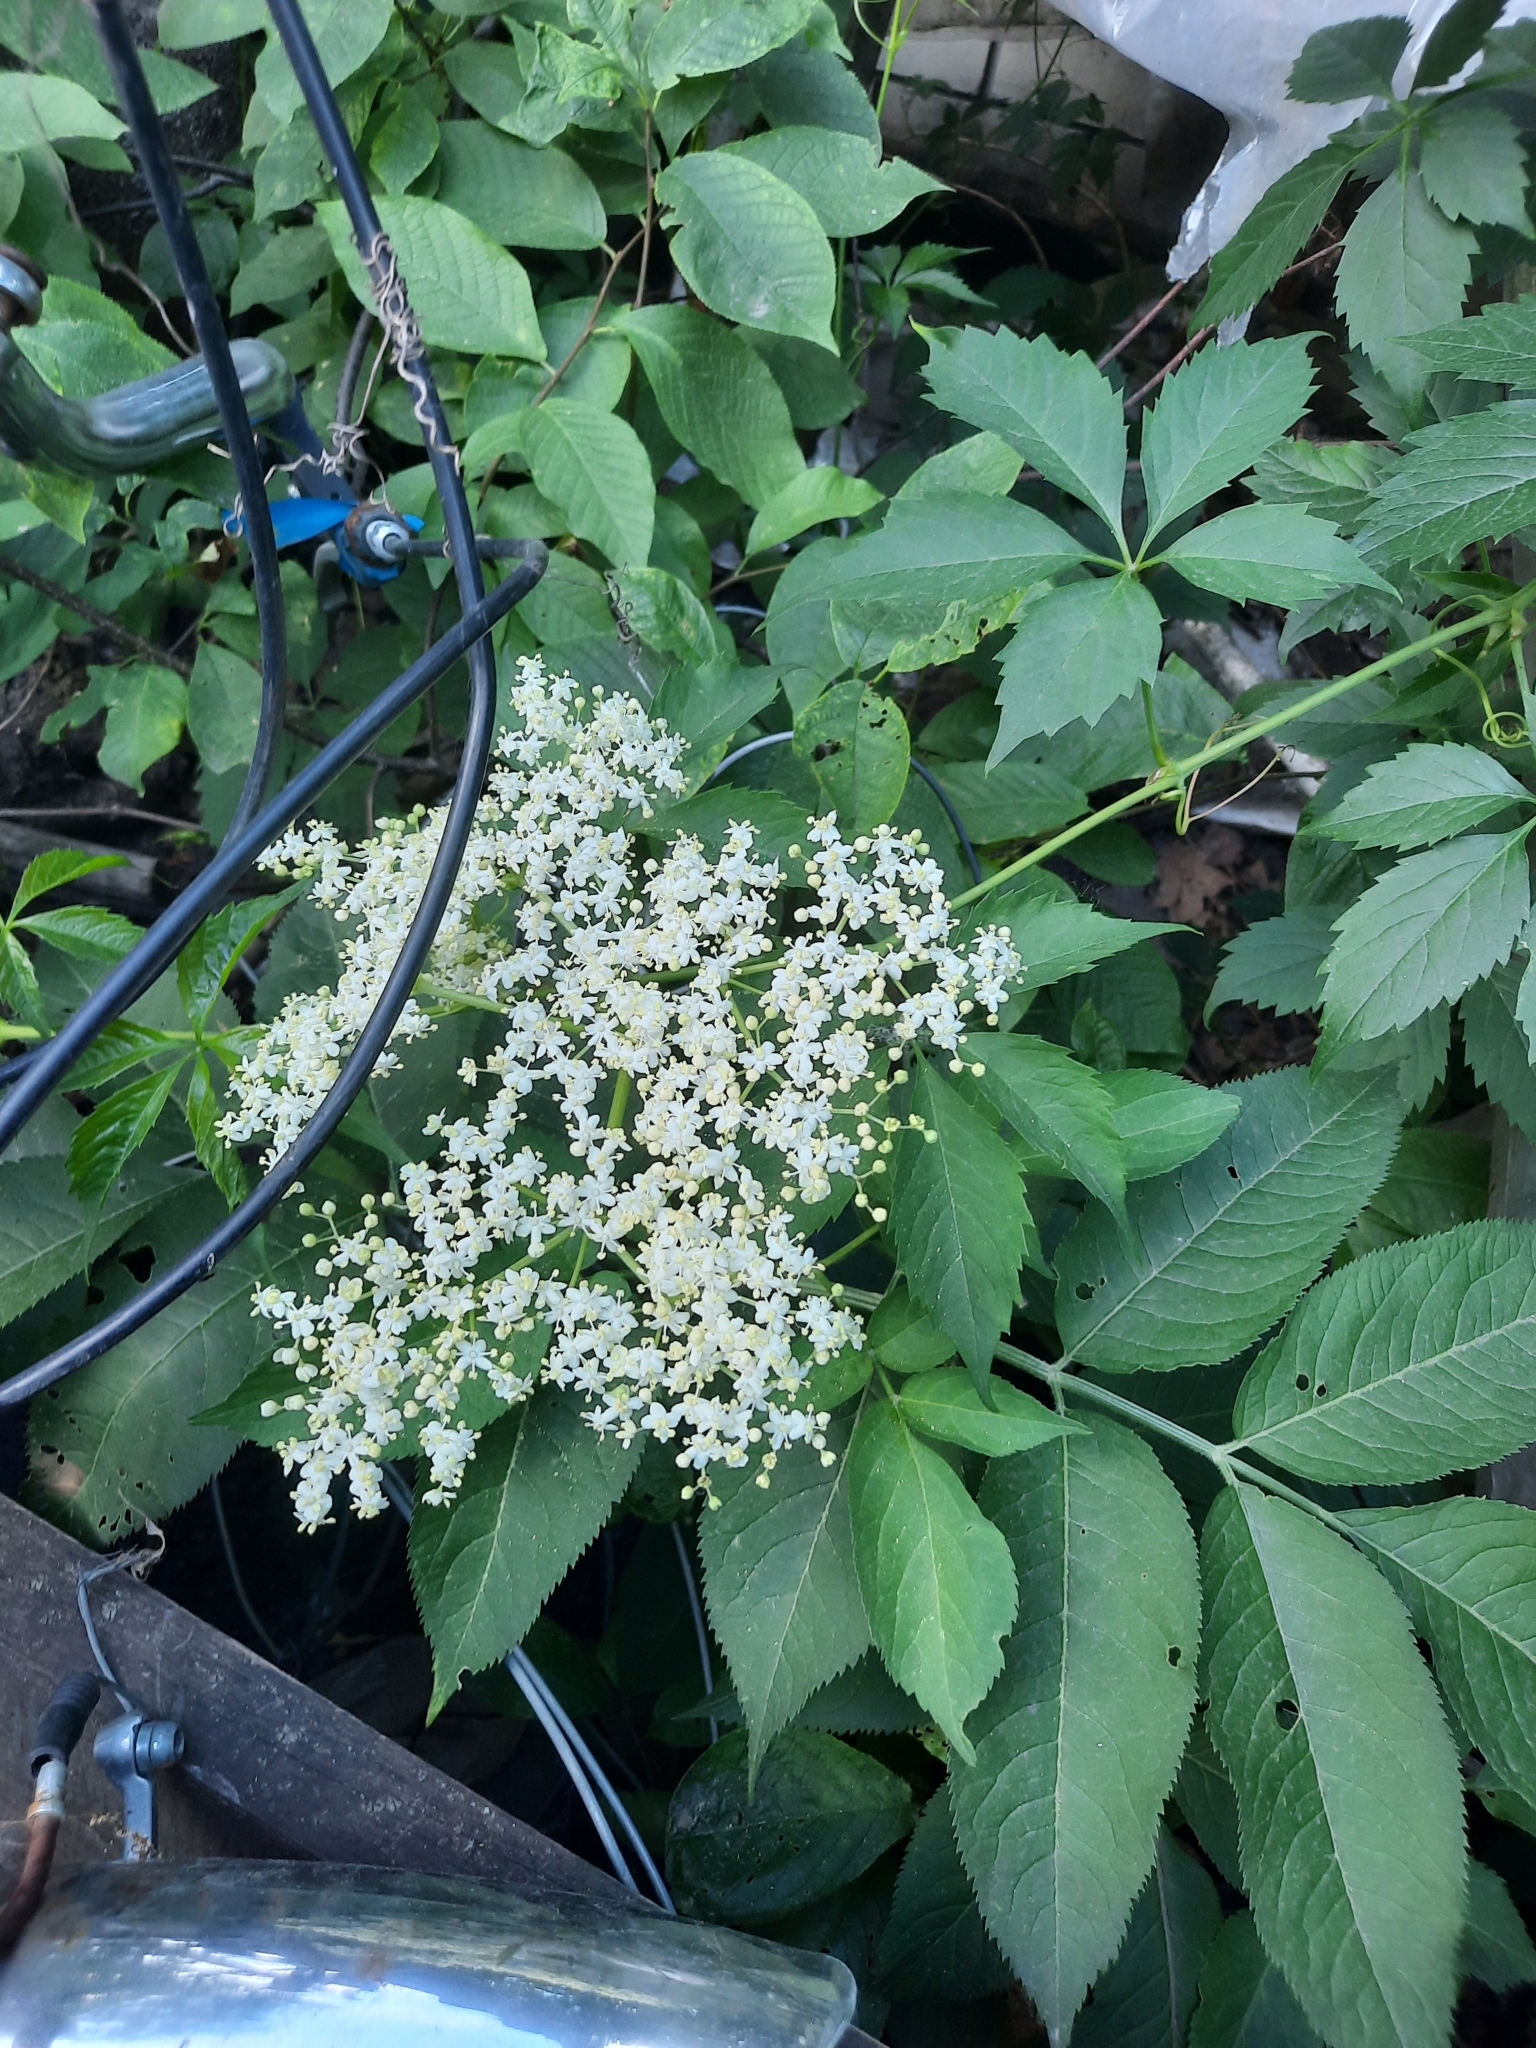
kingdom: Plantae
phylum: Tracheophyta
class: Magnoliopsida
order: Dipsacales
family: Viburnaceae
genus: Sambucus
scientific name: Sambucus nigra
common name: Elder
